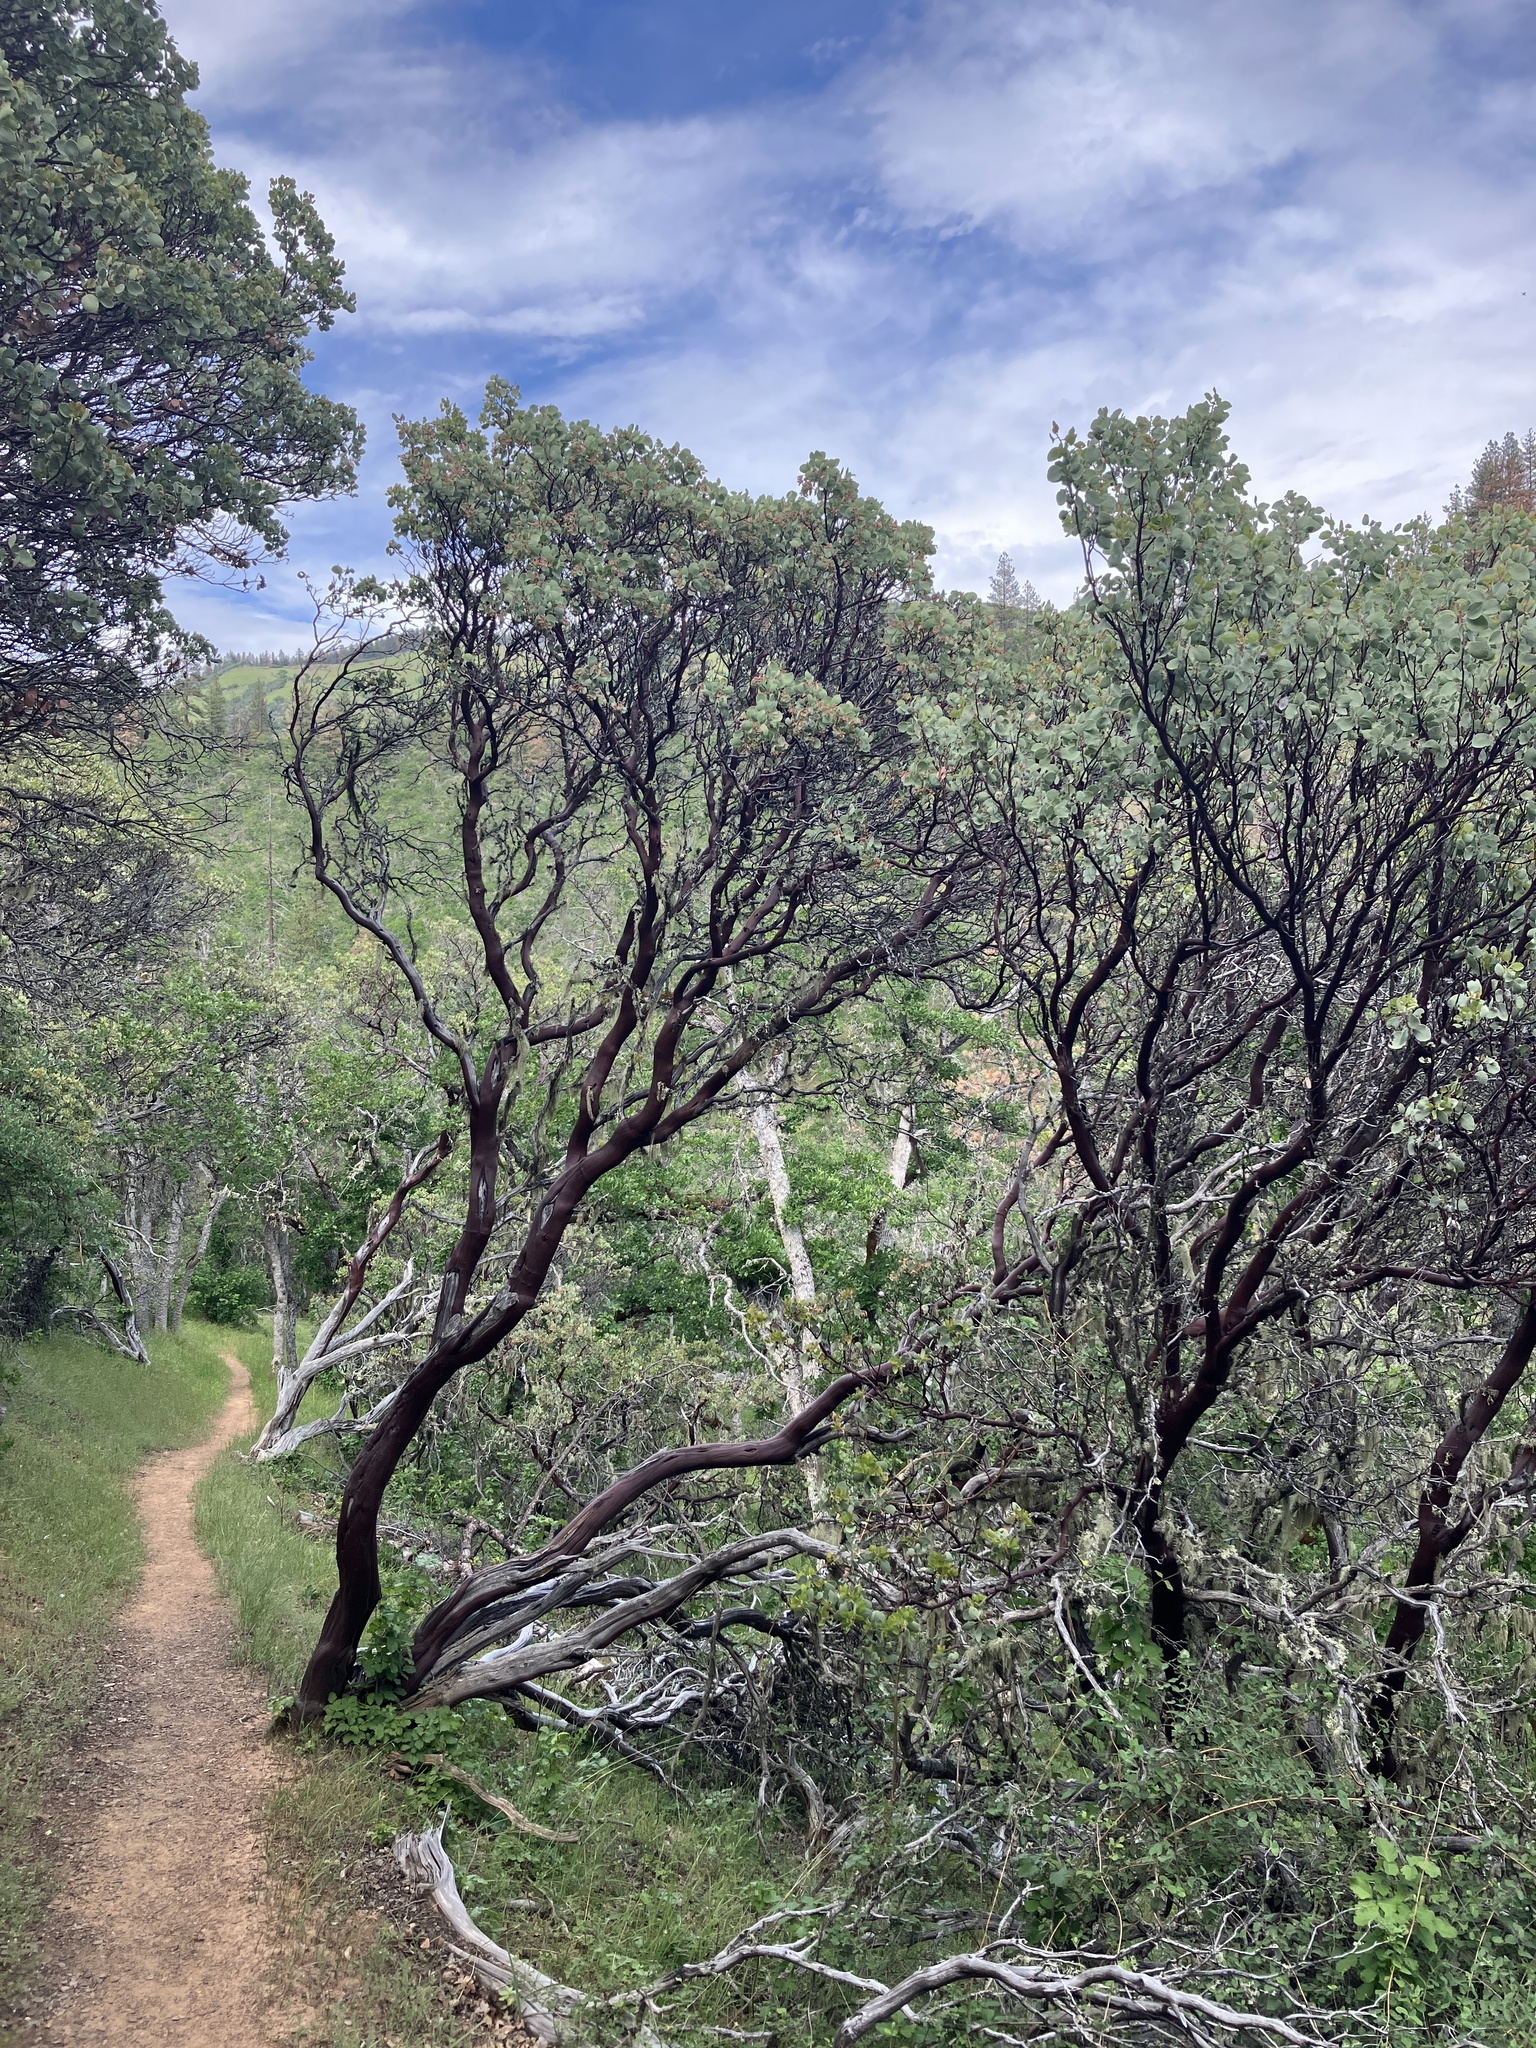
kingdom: Plantae
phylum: Tracheophyta
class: Magnoliopsida
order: Ericales
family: Ericaceae
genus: Arctostaphylos
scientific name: Arctostaphylos viscida
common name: White-leaf manzanita
